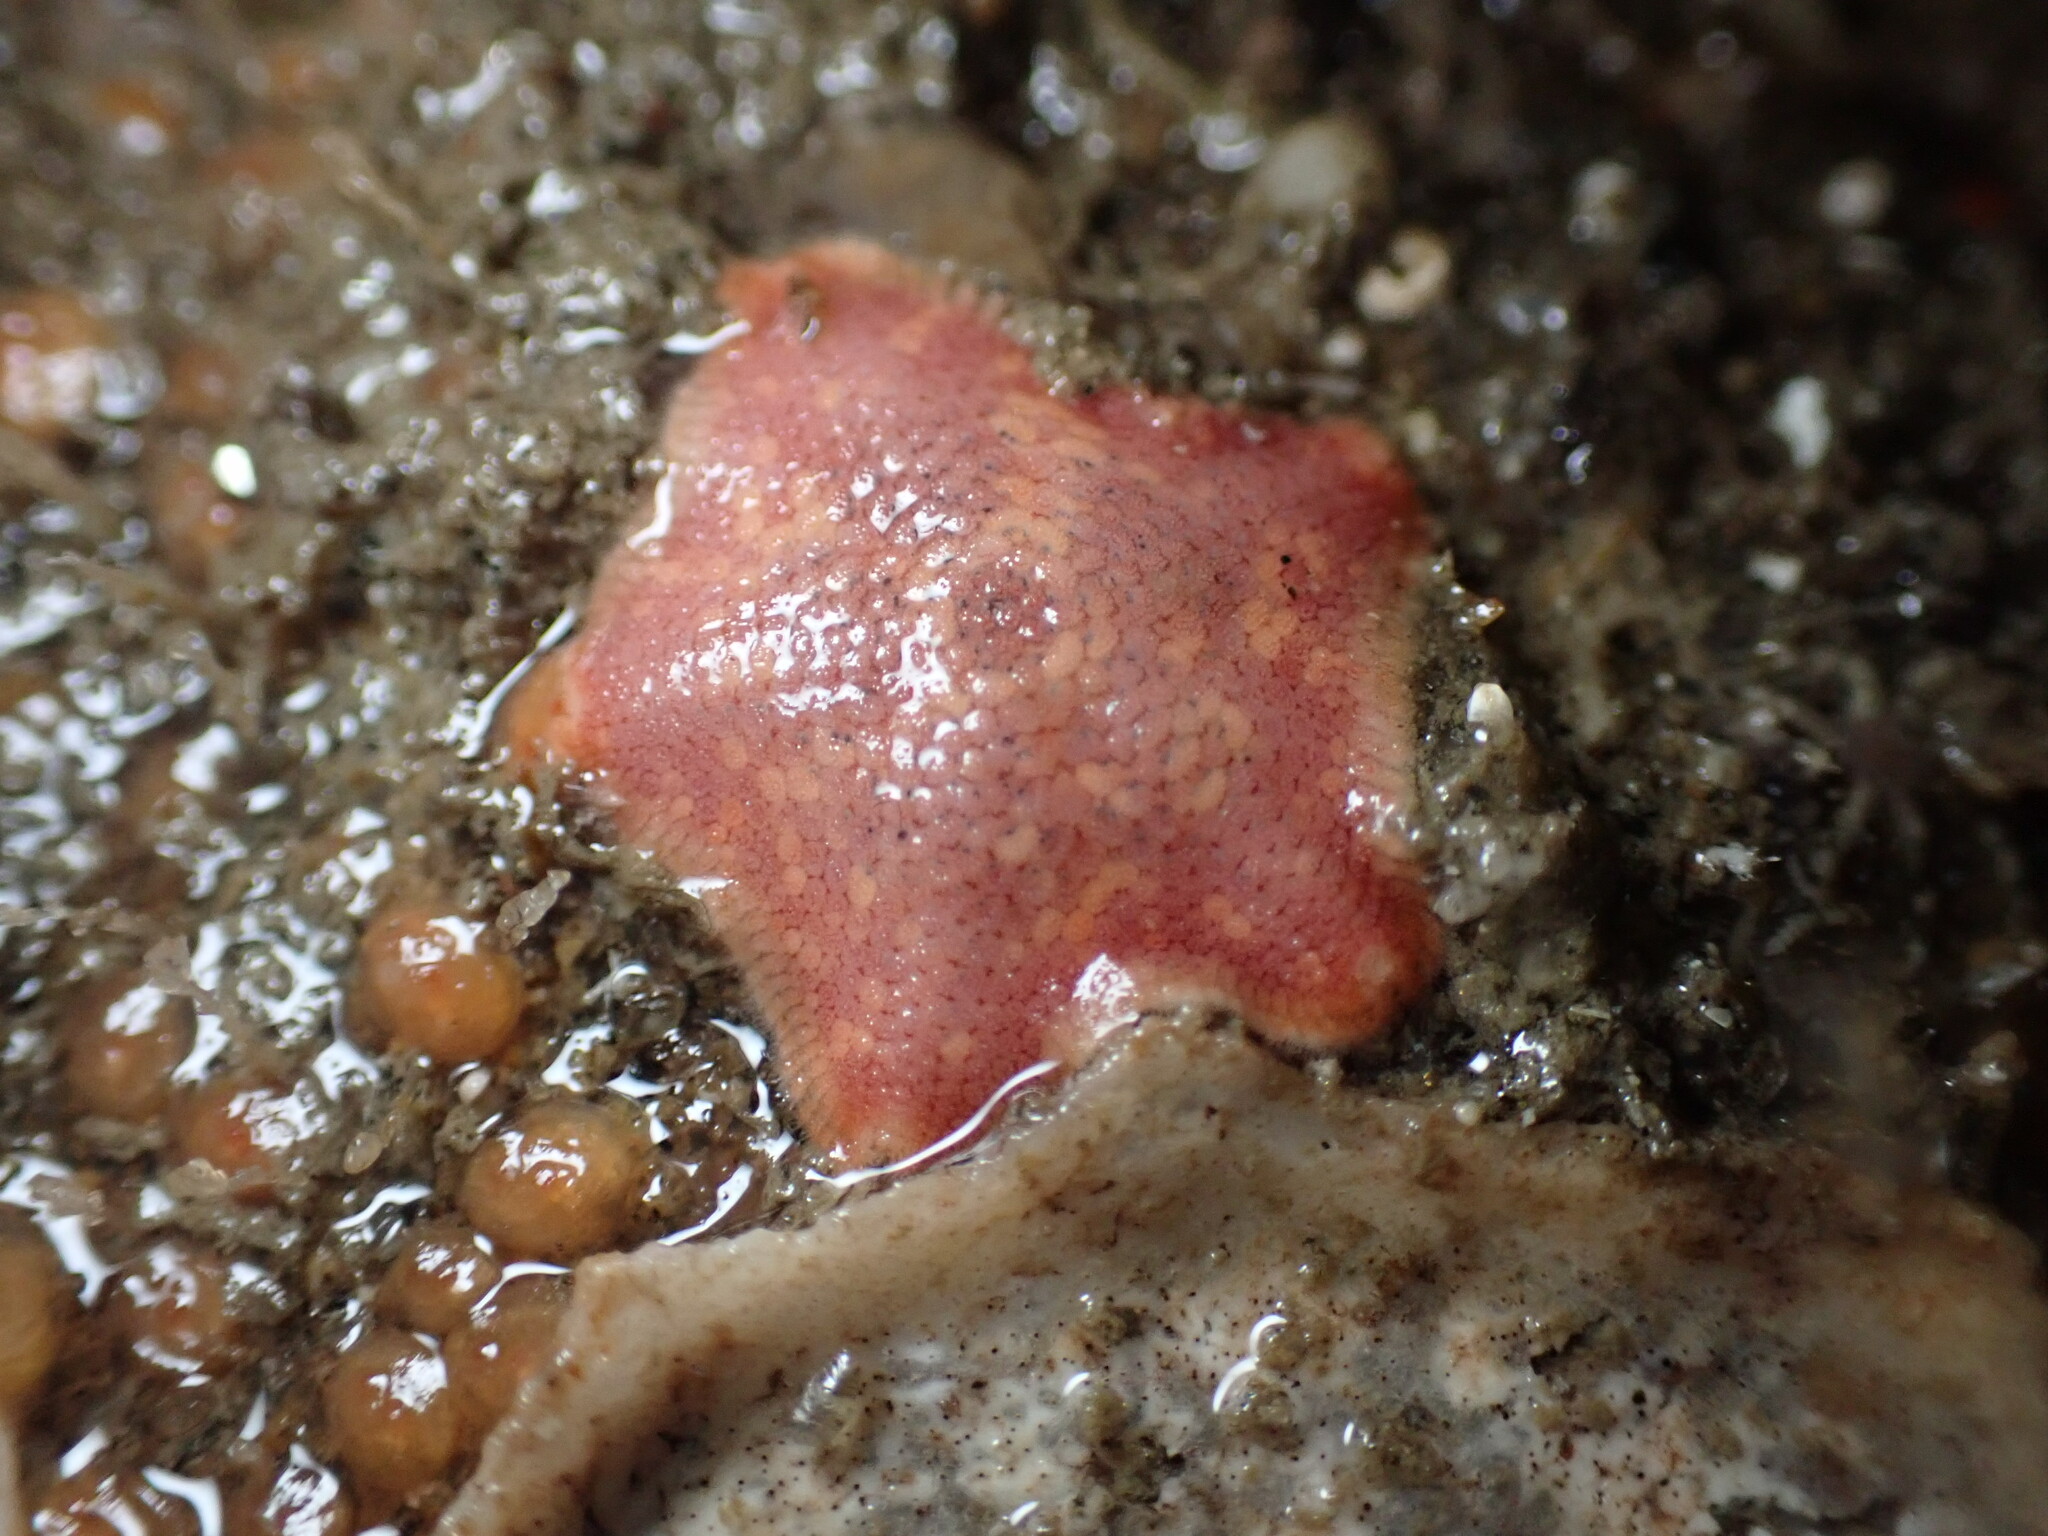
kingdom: Animalia
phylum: Echinodermata
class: Asteroidea
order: Valvatida
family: Asterinidae
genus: Patiria
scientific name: Patiria miniata
